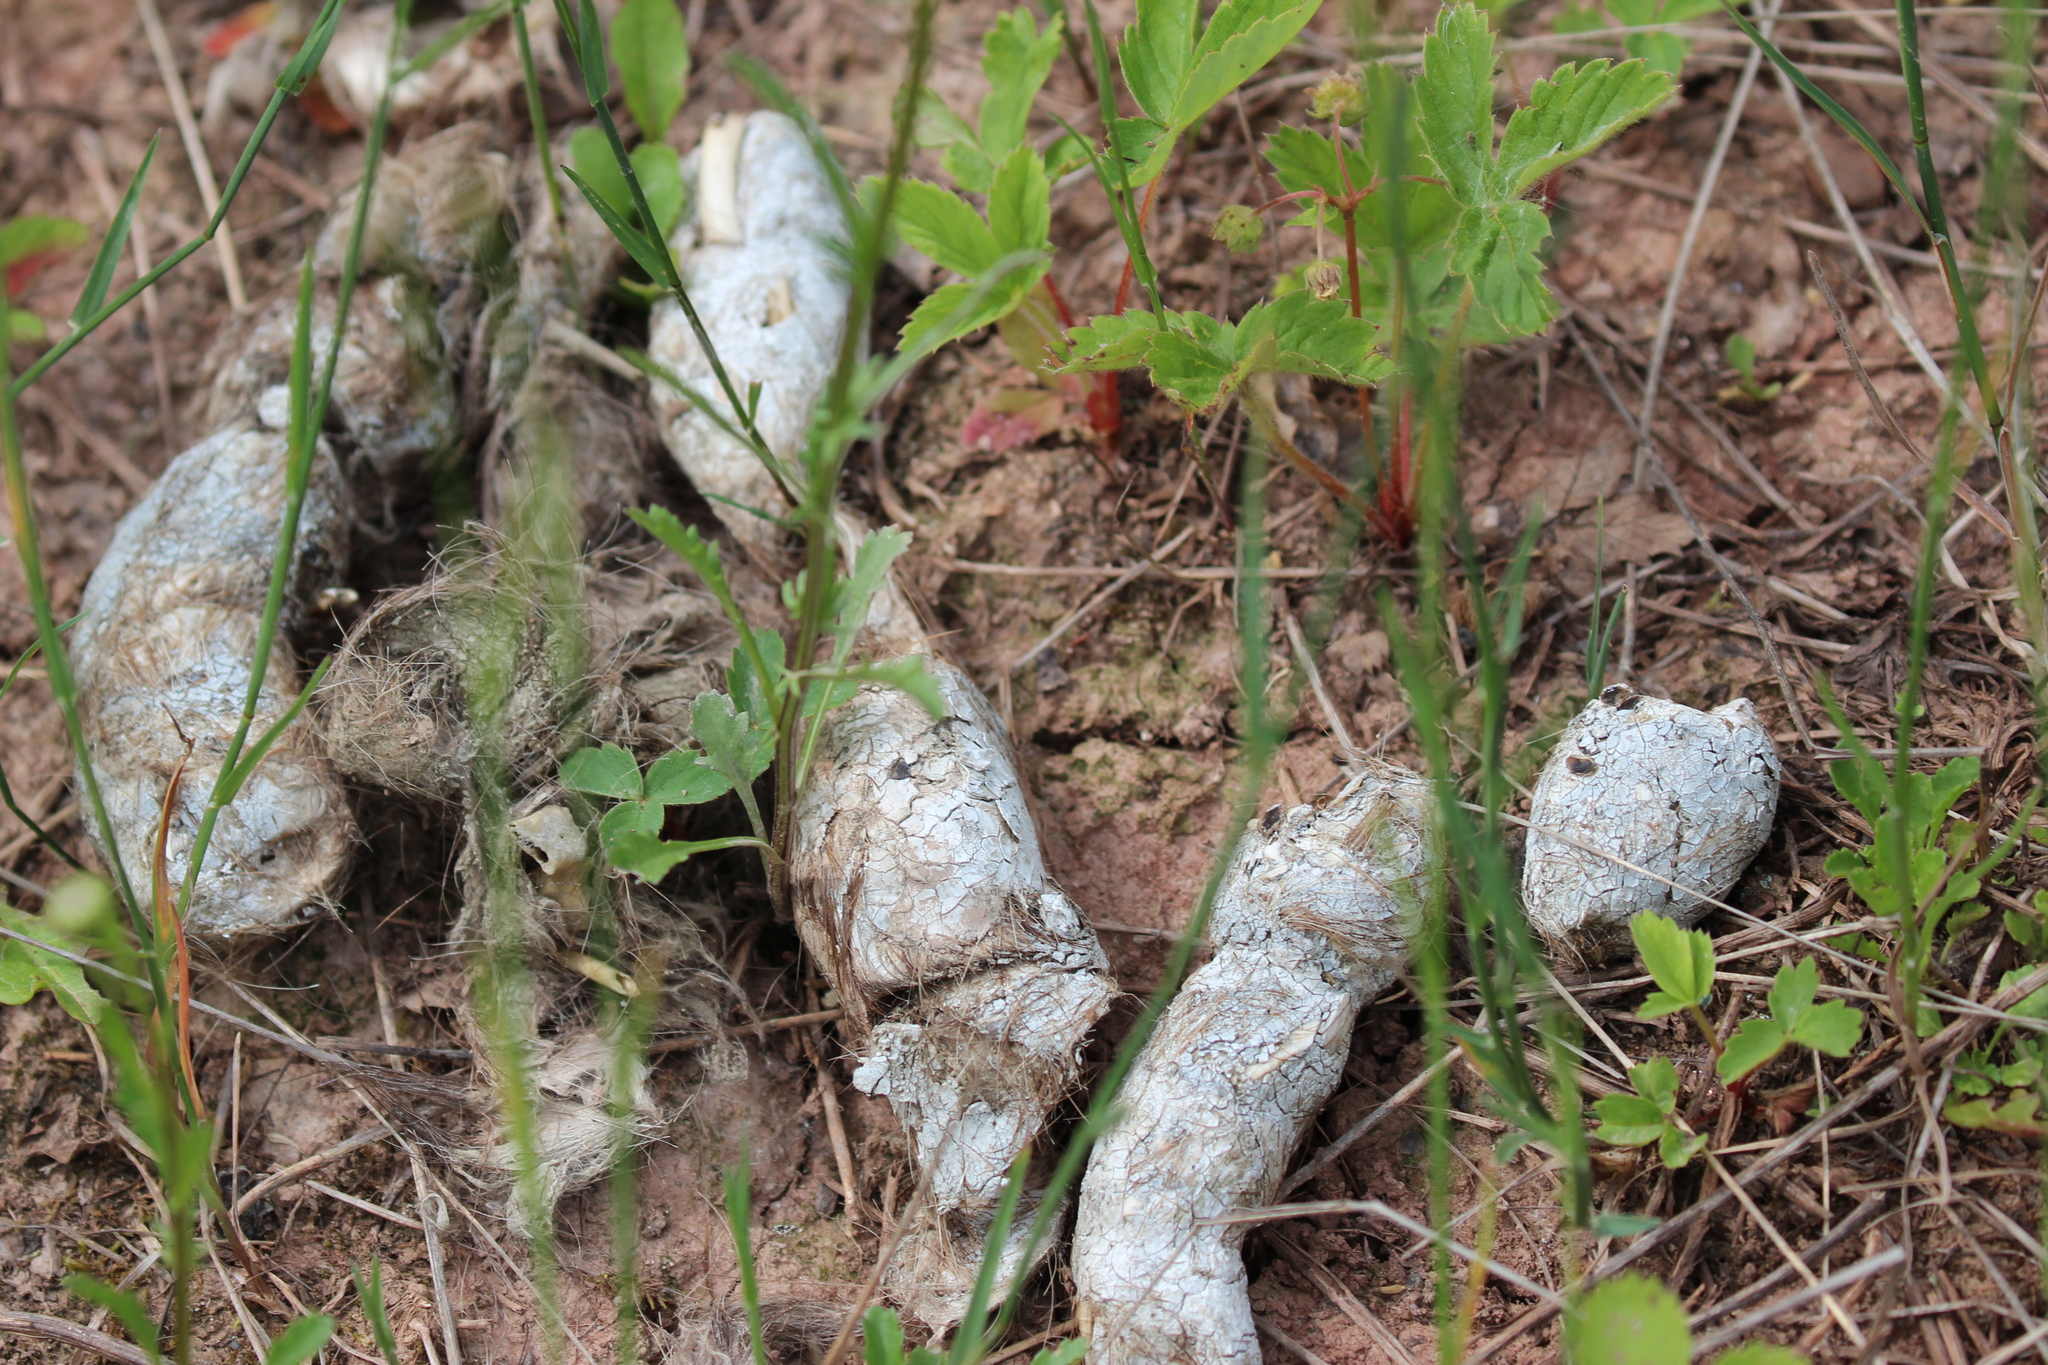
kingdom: Animalia
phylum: Chordata
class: Mammalia
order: Carnivora
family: Canidae
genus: Canis
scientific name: Canis lupus
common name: Gray wolf
